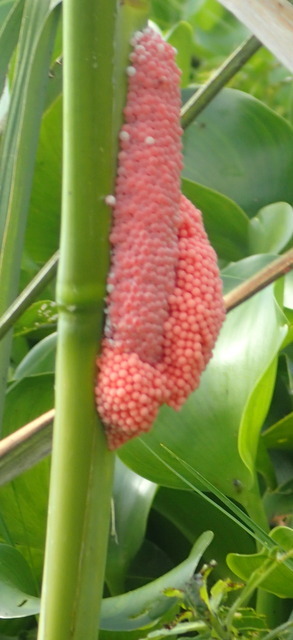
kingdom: Animalia
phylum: Mollusca
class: Gastropoda
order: Architaenioglossa
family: Ampullariidae
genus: Pomacea
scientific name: Pomacea maculata
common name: Giant applesnail
